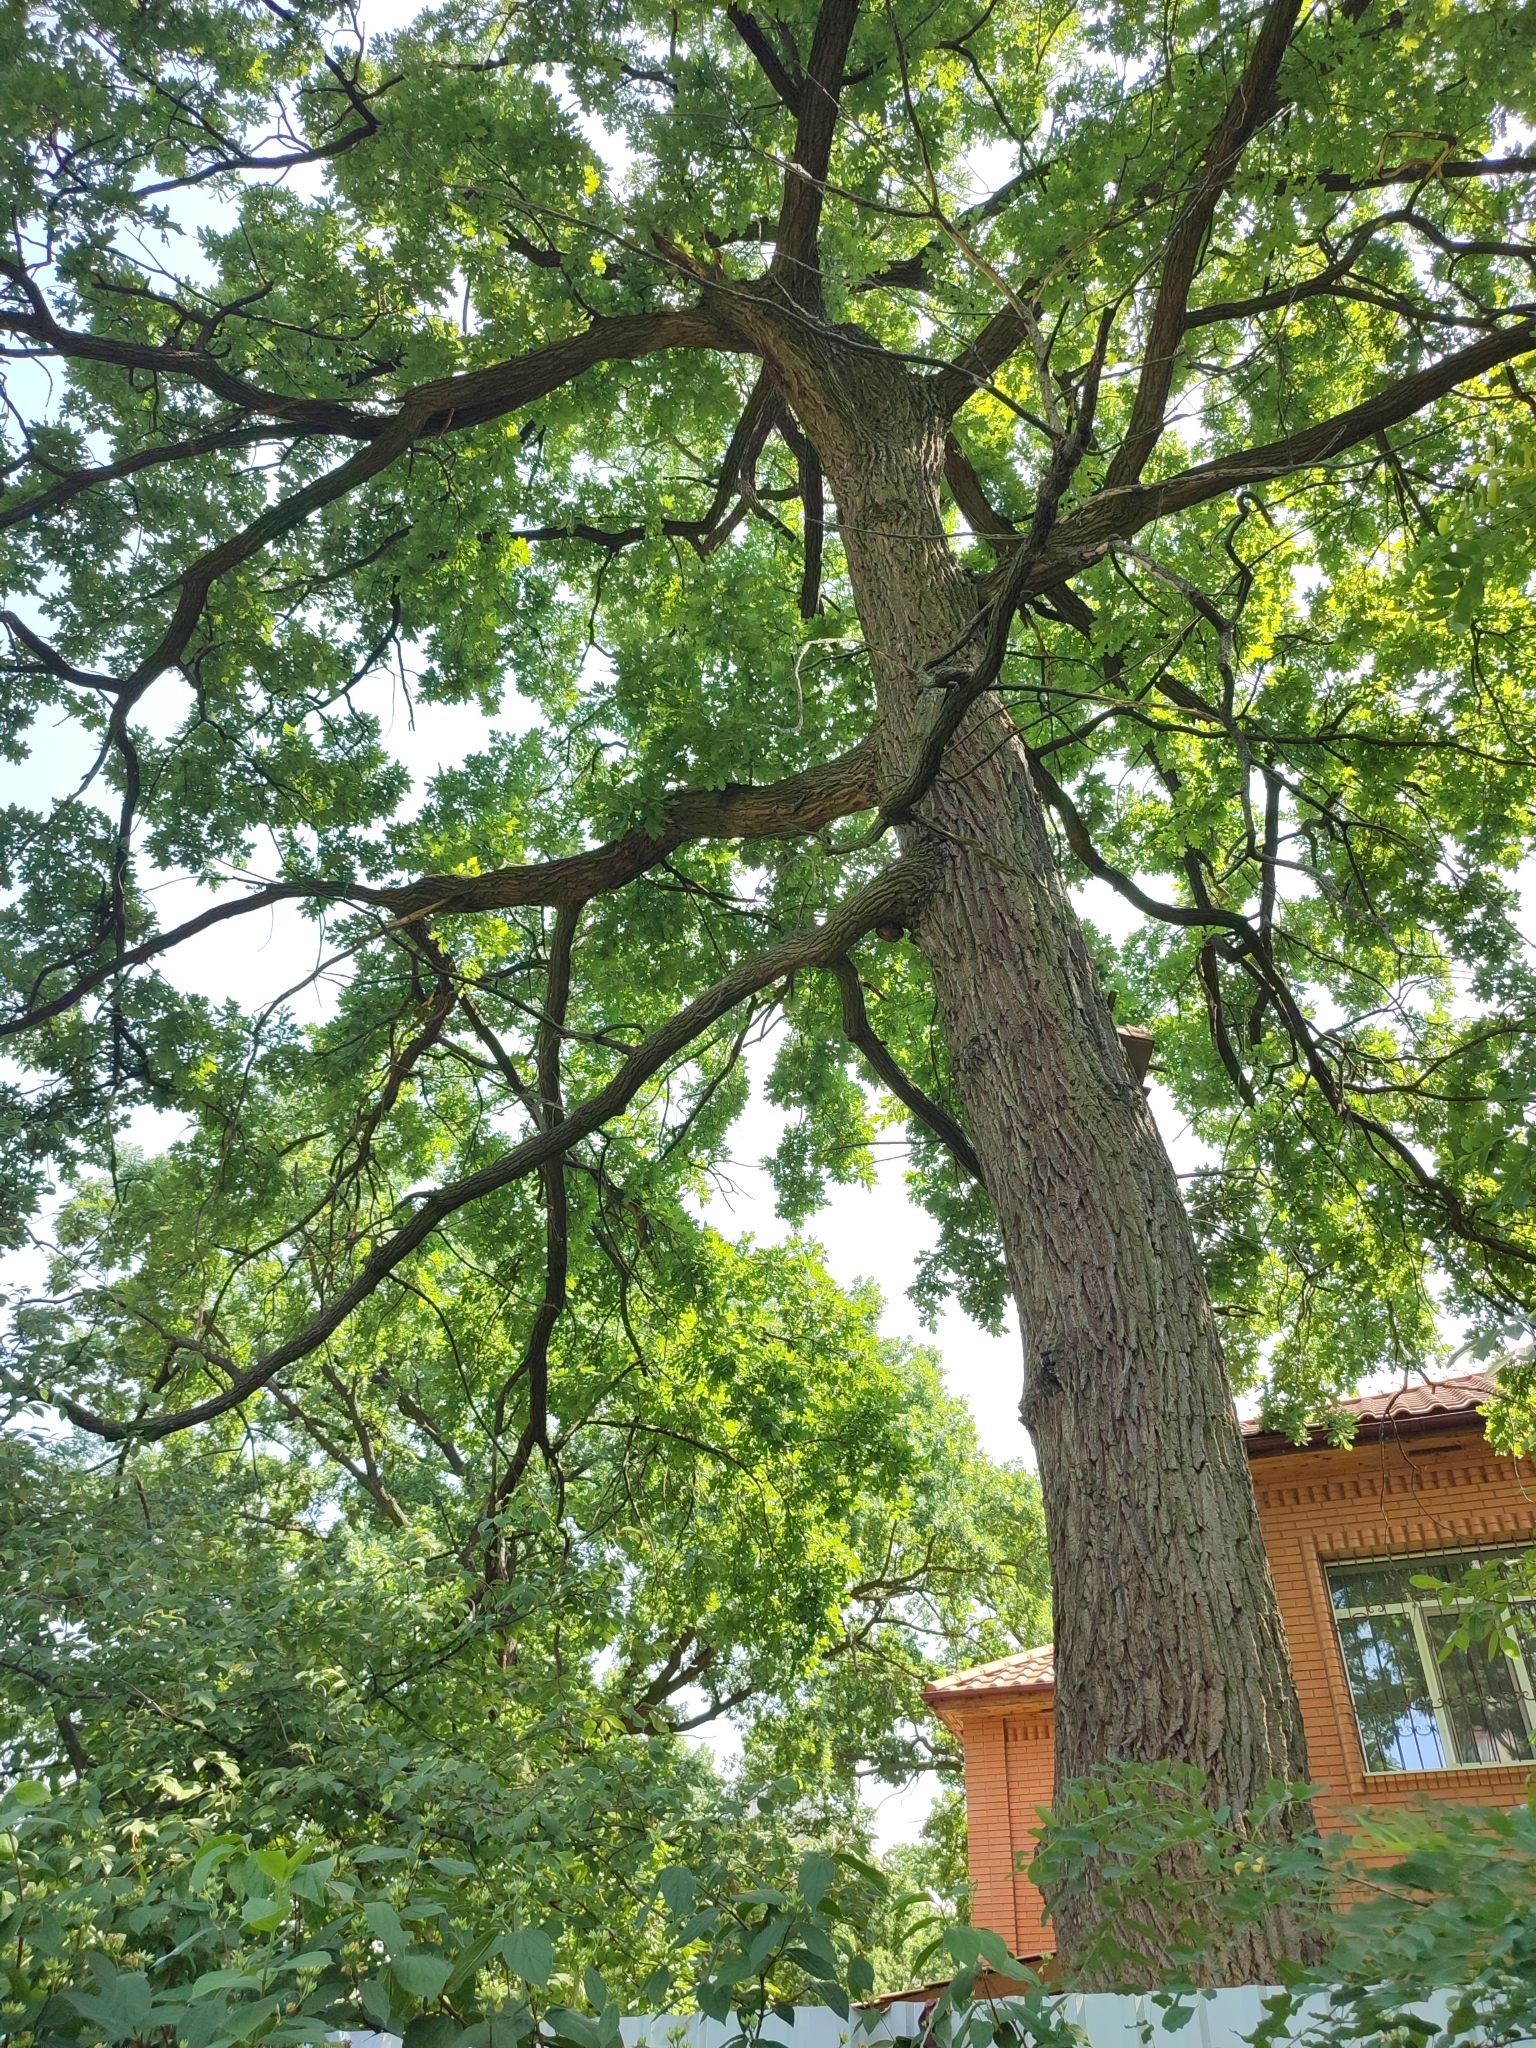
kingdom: Plantae
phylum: Tracheophyta
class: Magnoliopsida
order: Fagales
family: Fagaceae
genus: Quercus
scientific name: Quercus robur
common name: Pedunculate oak
